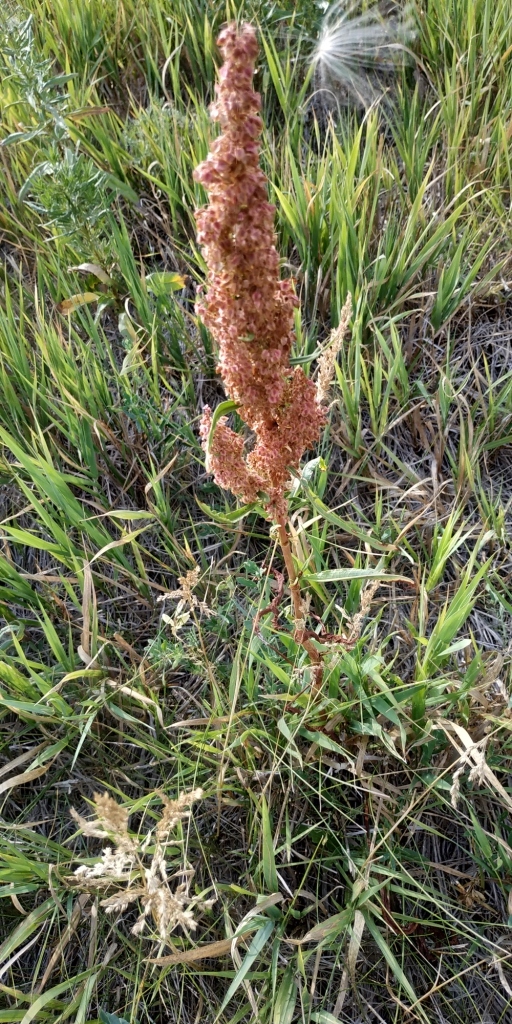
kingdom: Plantae
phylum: Tracheophyta
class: Magnoliopsida
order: Caryophyllales
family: Polygonaceae
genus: Rumex
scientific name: Rumex pseudonatronatus
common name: Field dock
